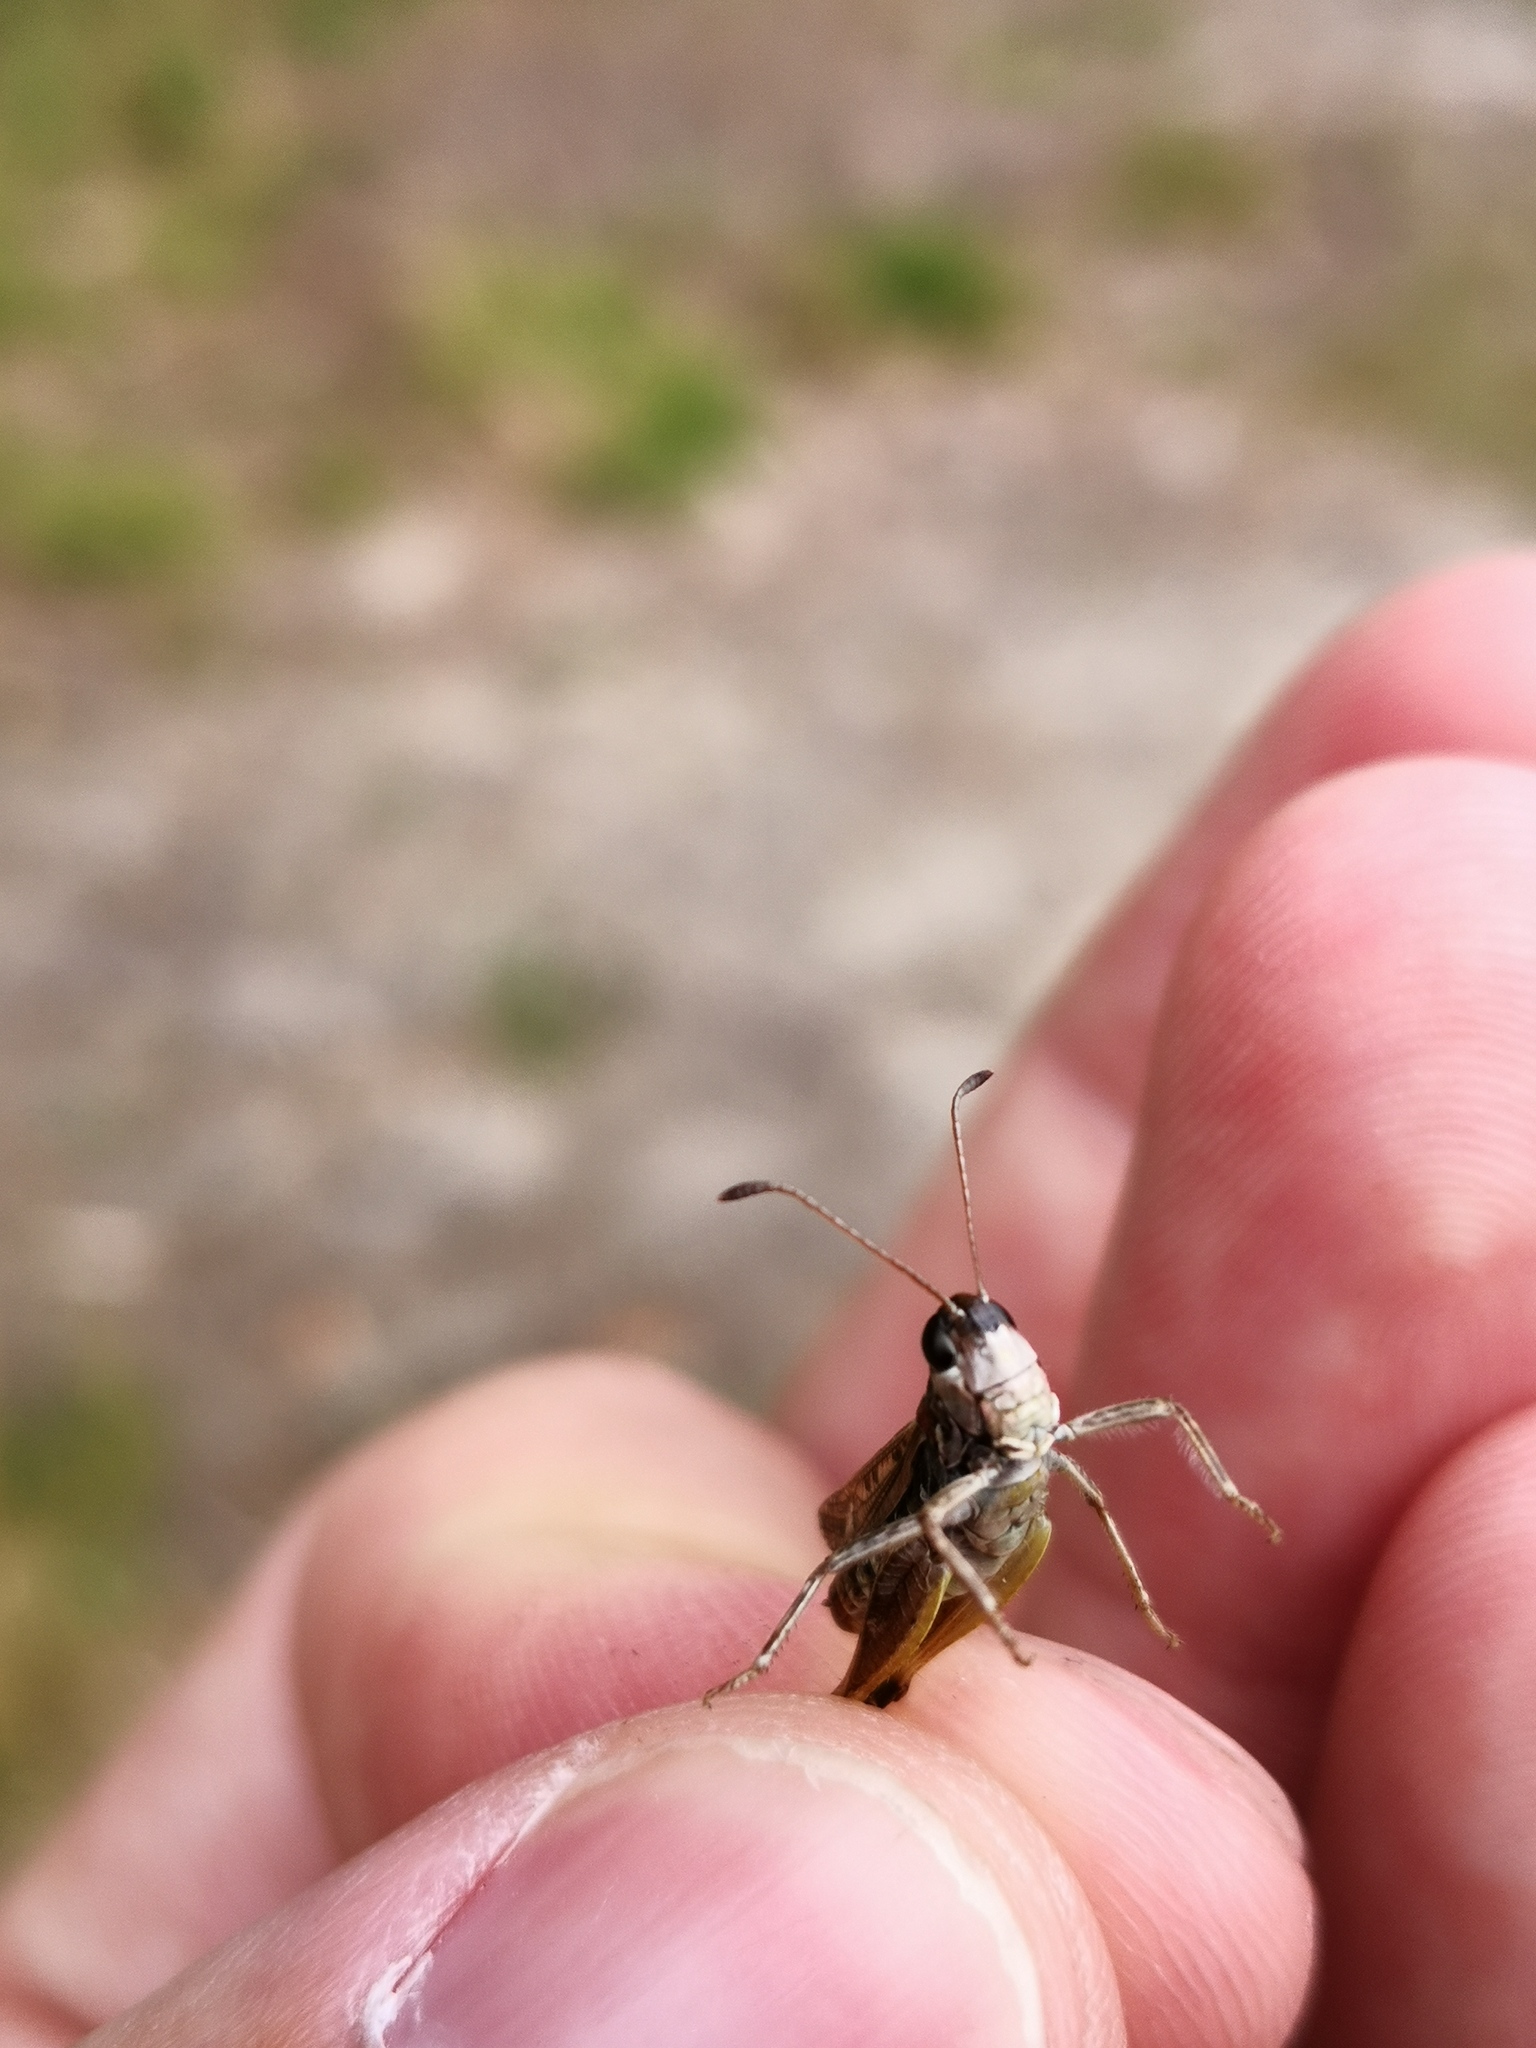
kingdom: Animalia
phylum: Arthropoda
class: Insecta
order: Orthoptera
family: Acrididae
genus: Myrmeleotettix
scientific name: Myrmeleotettix maculatus
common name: Mottled grasshopper
